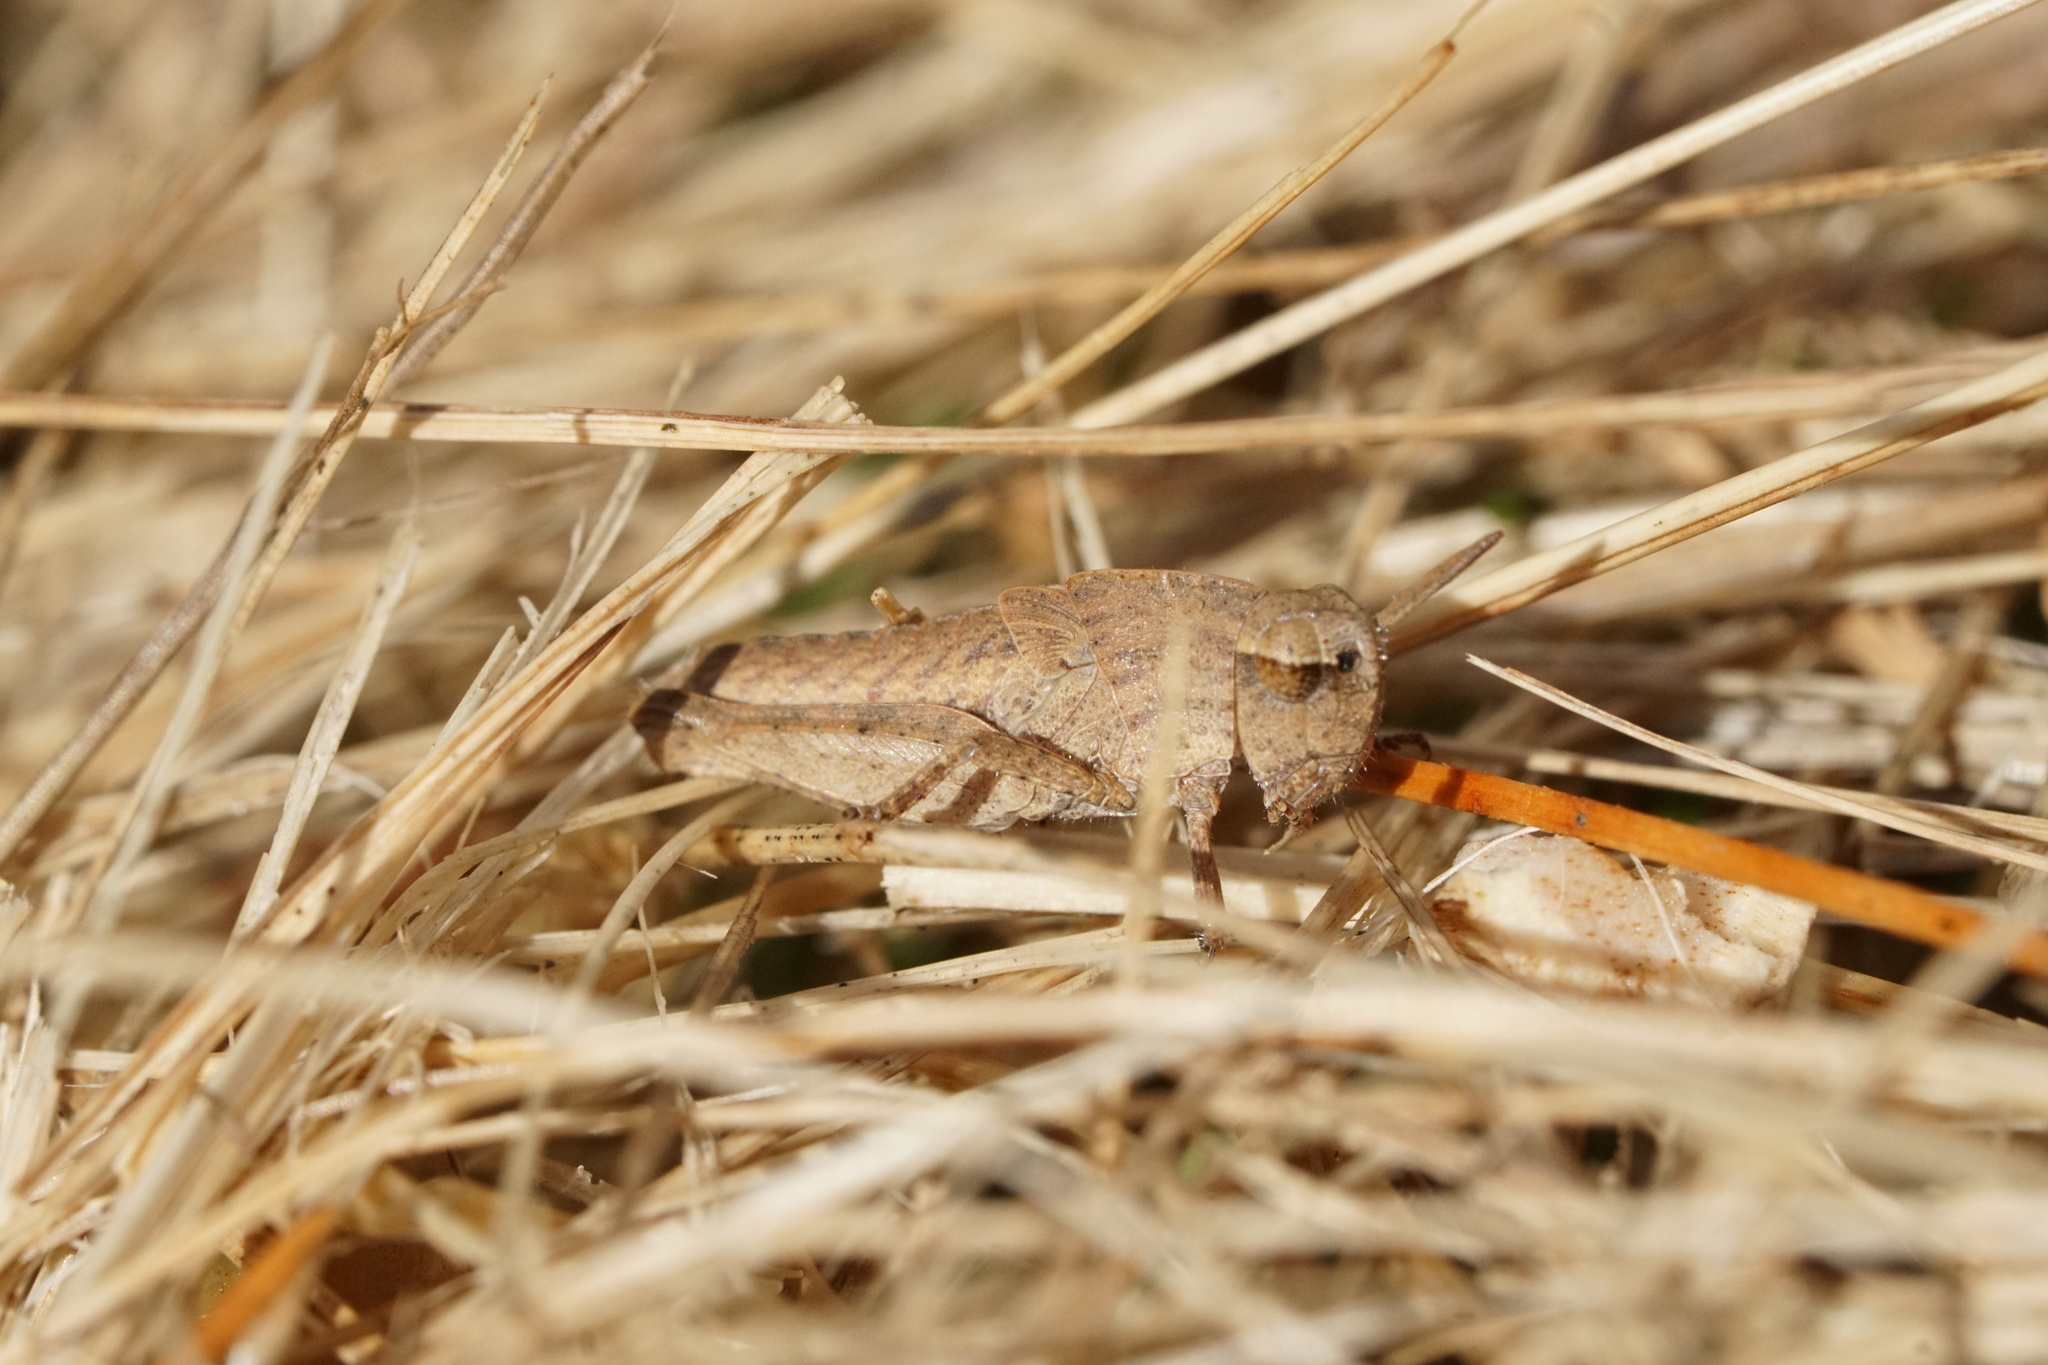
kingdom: Animalia
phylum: Arthropoda
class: Insecta
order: Orthoptera
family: Acrididae
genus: Chortophaga
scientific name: Chortophaga viridifasciata
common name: Green-striped grasshopper
